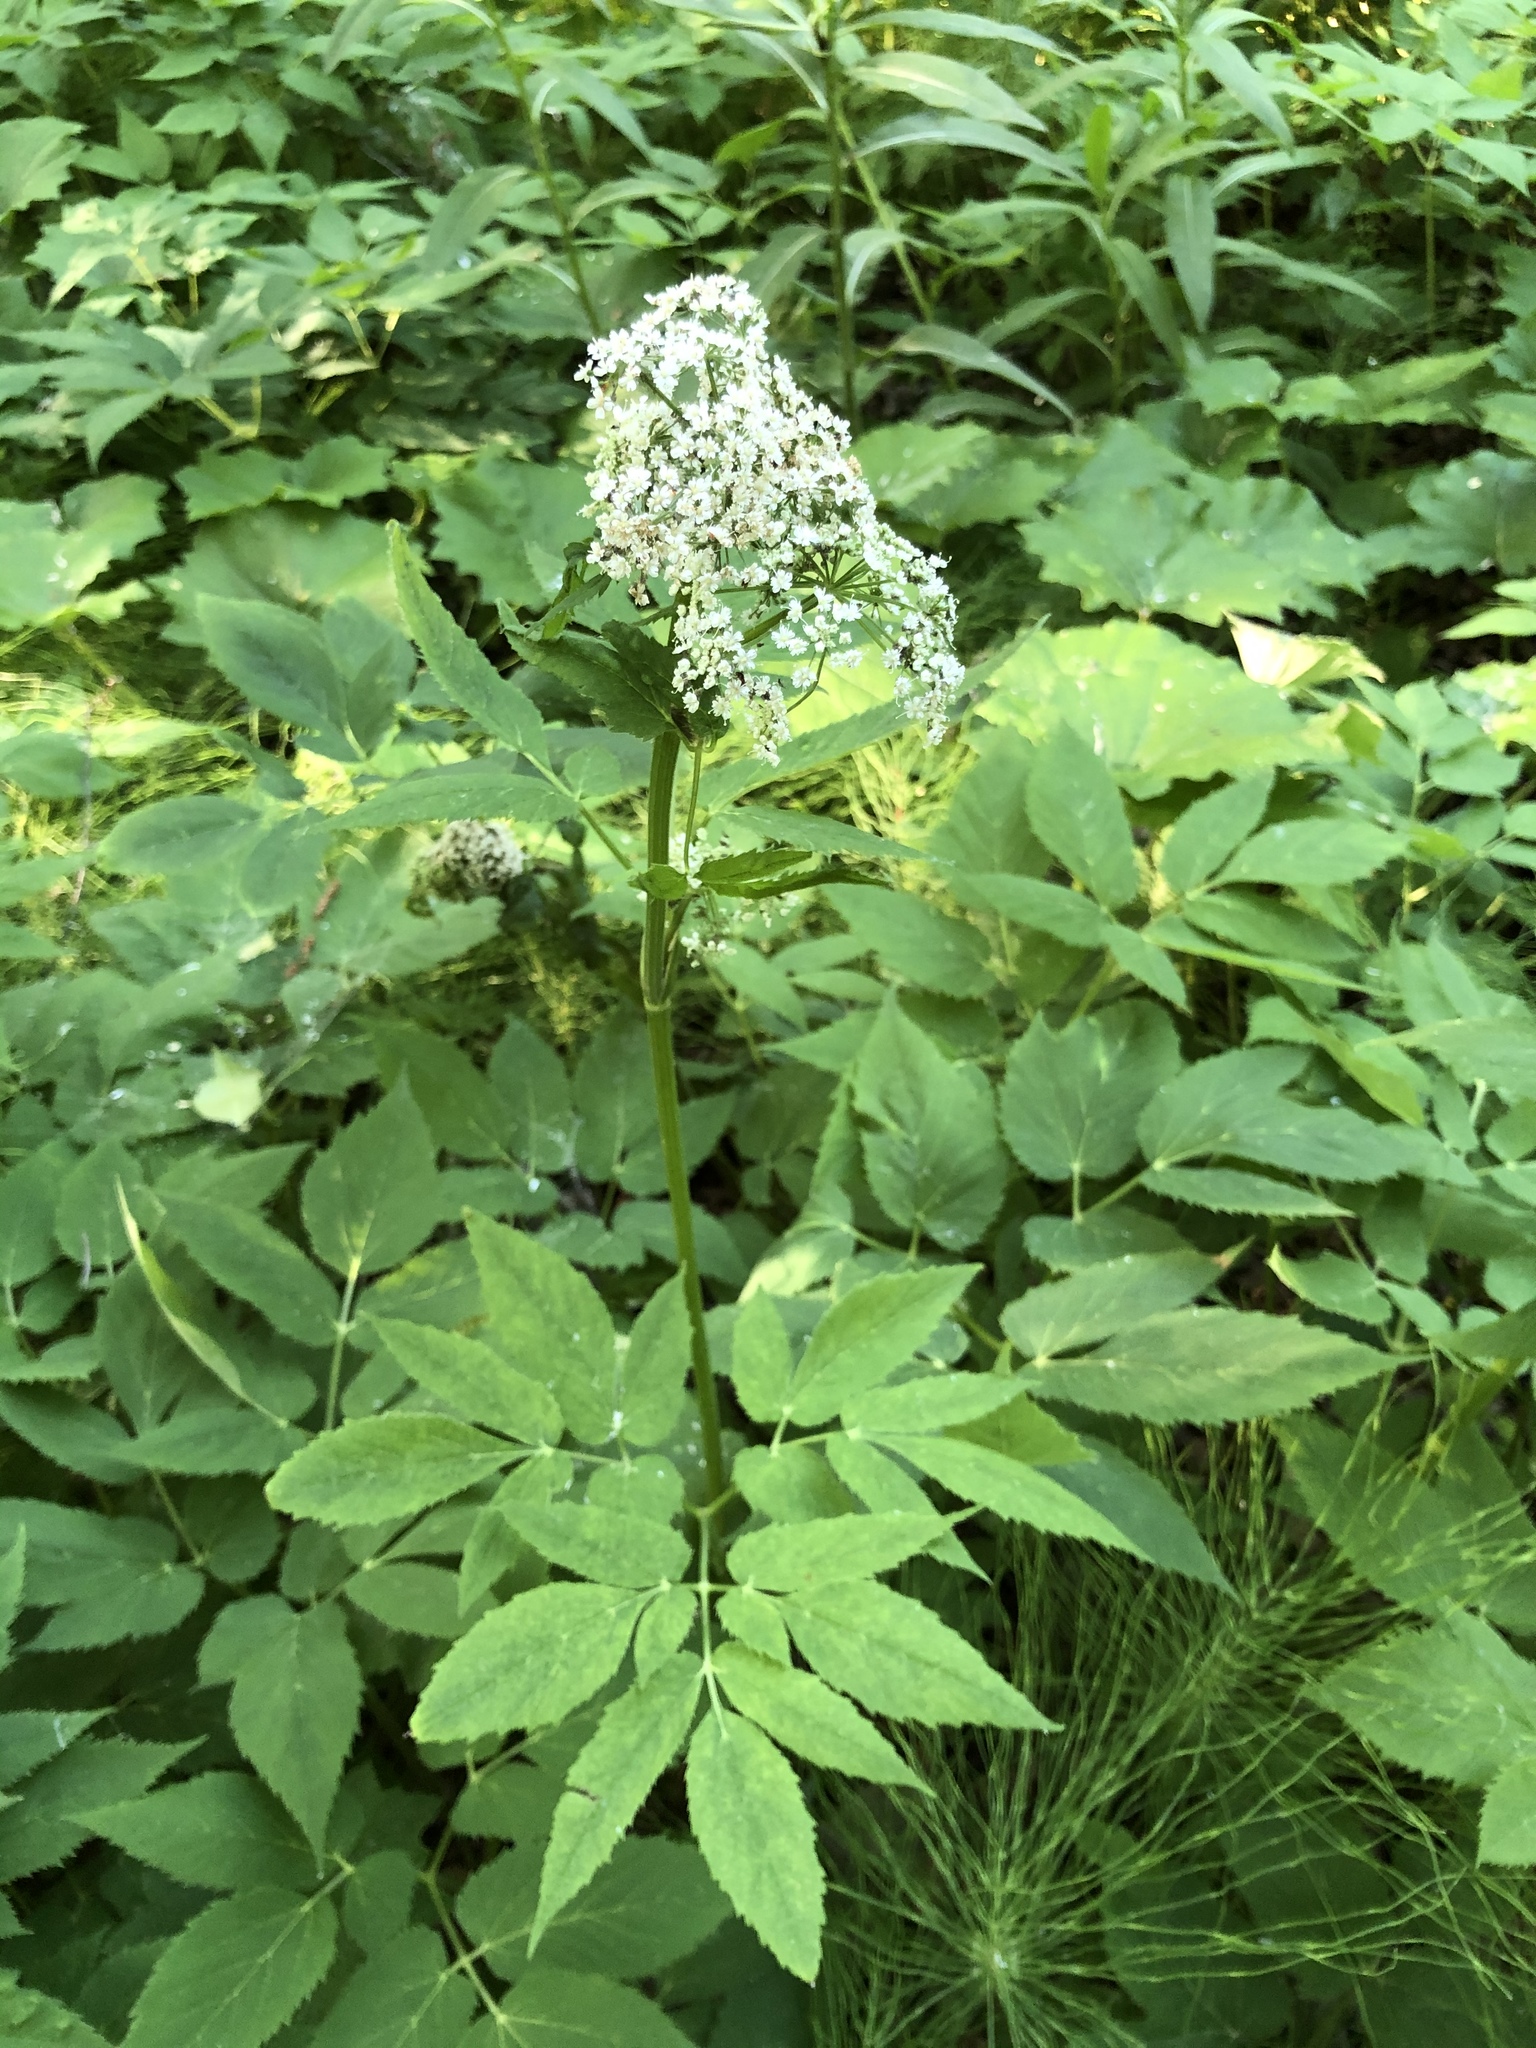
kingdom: Plantae
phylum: Tracheophyta
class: Magnoliopsida
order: Apiales
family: Apiaceae
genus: Aegopodium
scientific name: Aegopodium podagraria
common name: Ground-elder
